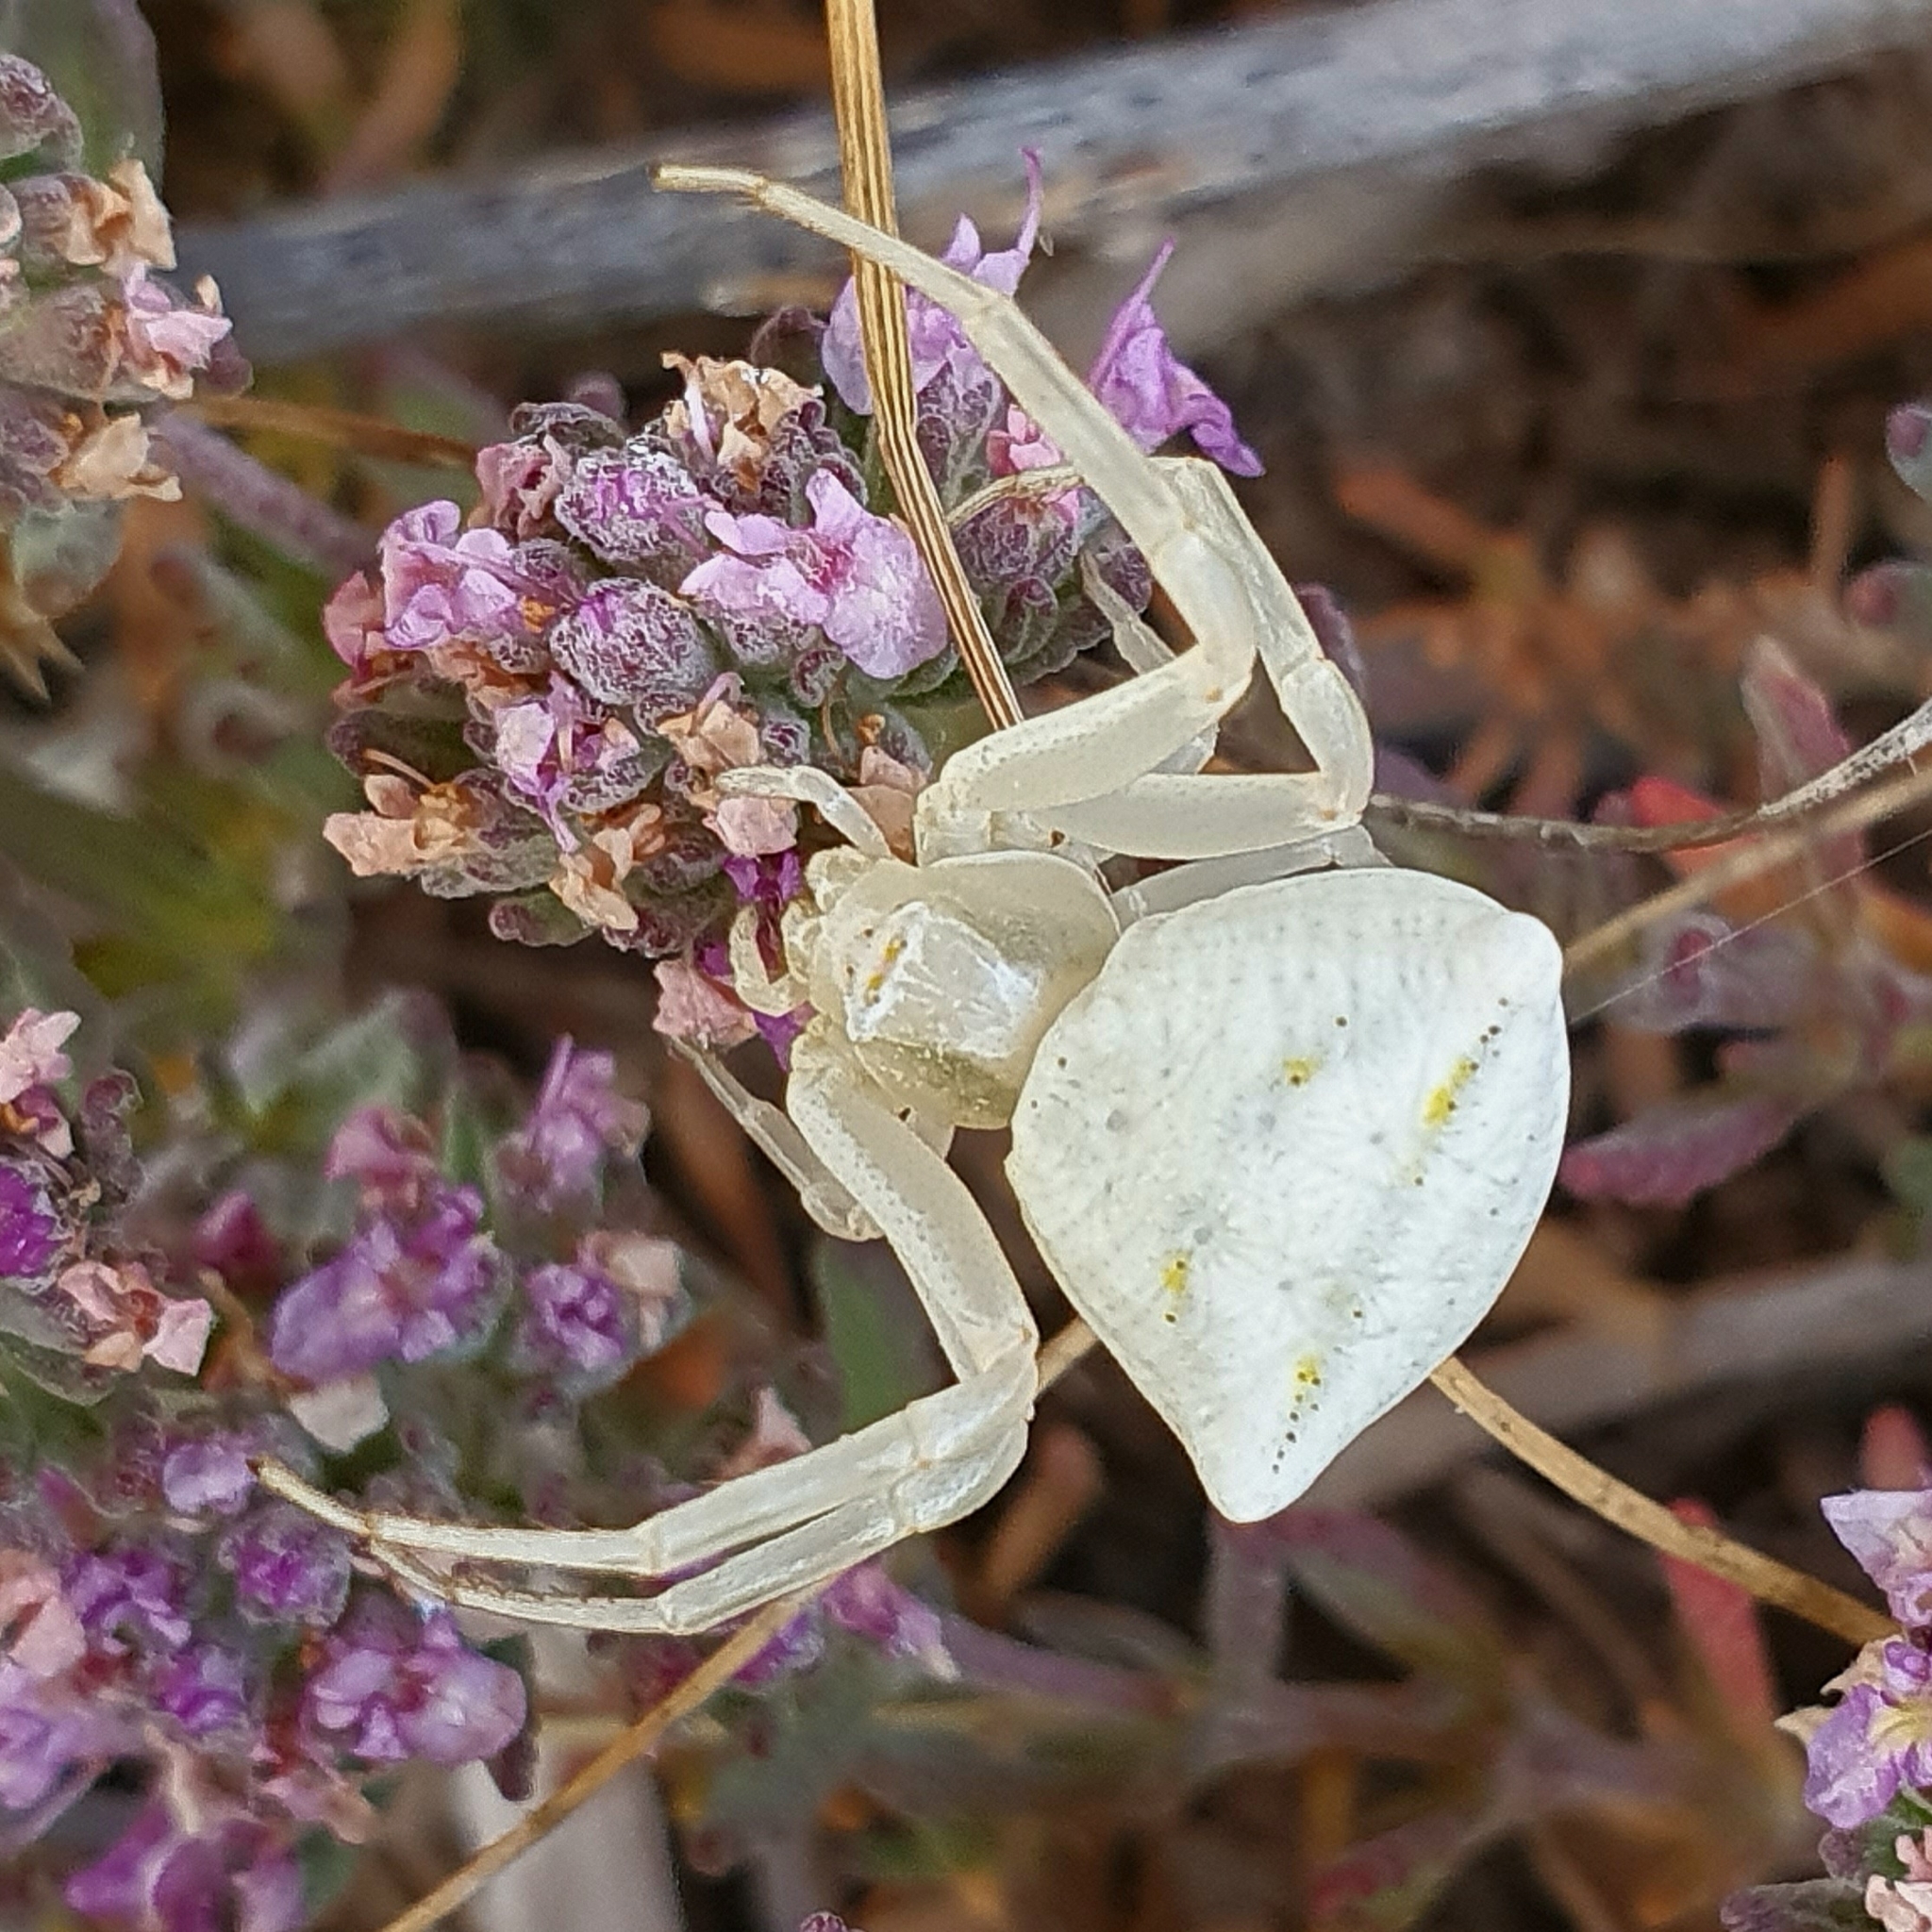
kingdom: Animalia
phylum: Arthropoda
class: Arachnida
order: Araneae
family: Thomisidae
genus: Thomisus
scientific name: Thomisus onustus
